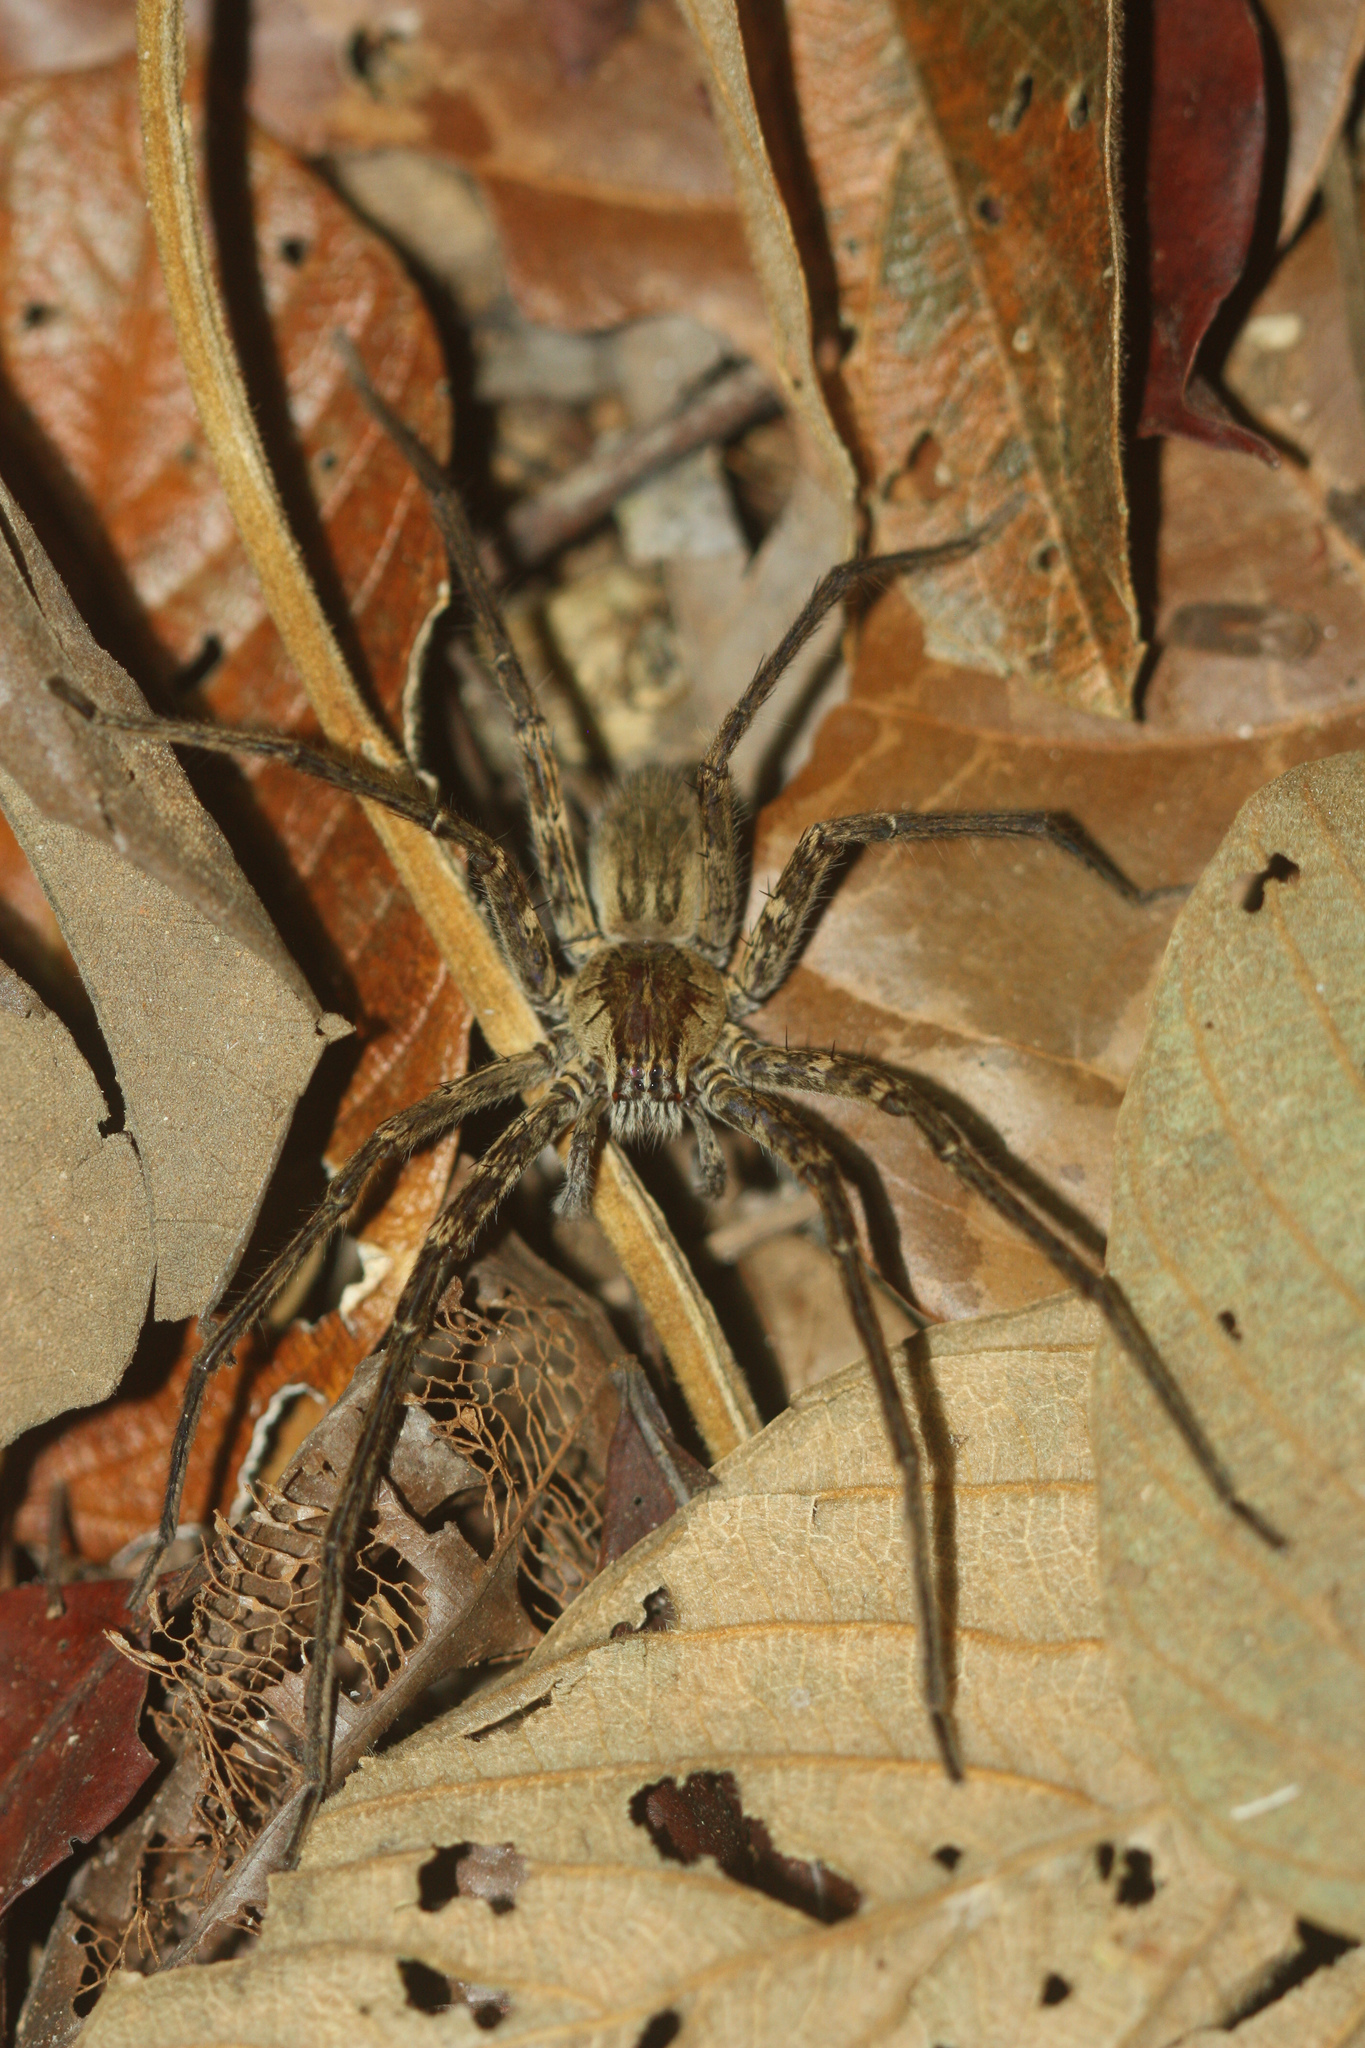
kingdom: Animalia
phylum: Arthropoda
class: Arachnida
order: Araneae
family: Trechaleidae
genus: Cupiennius
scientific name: Cupiennius coccineus
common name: Wandering spiders
